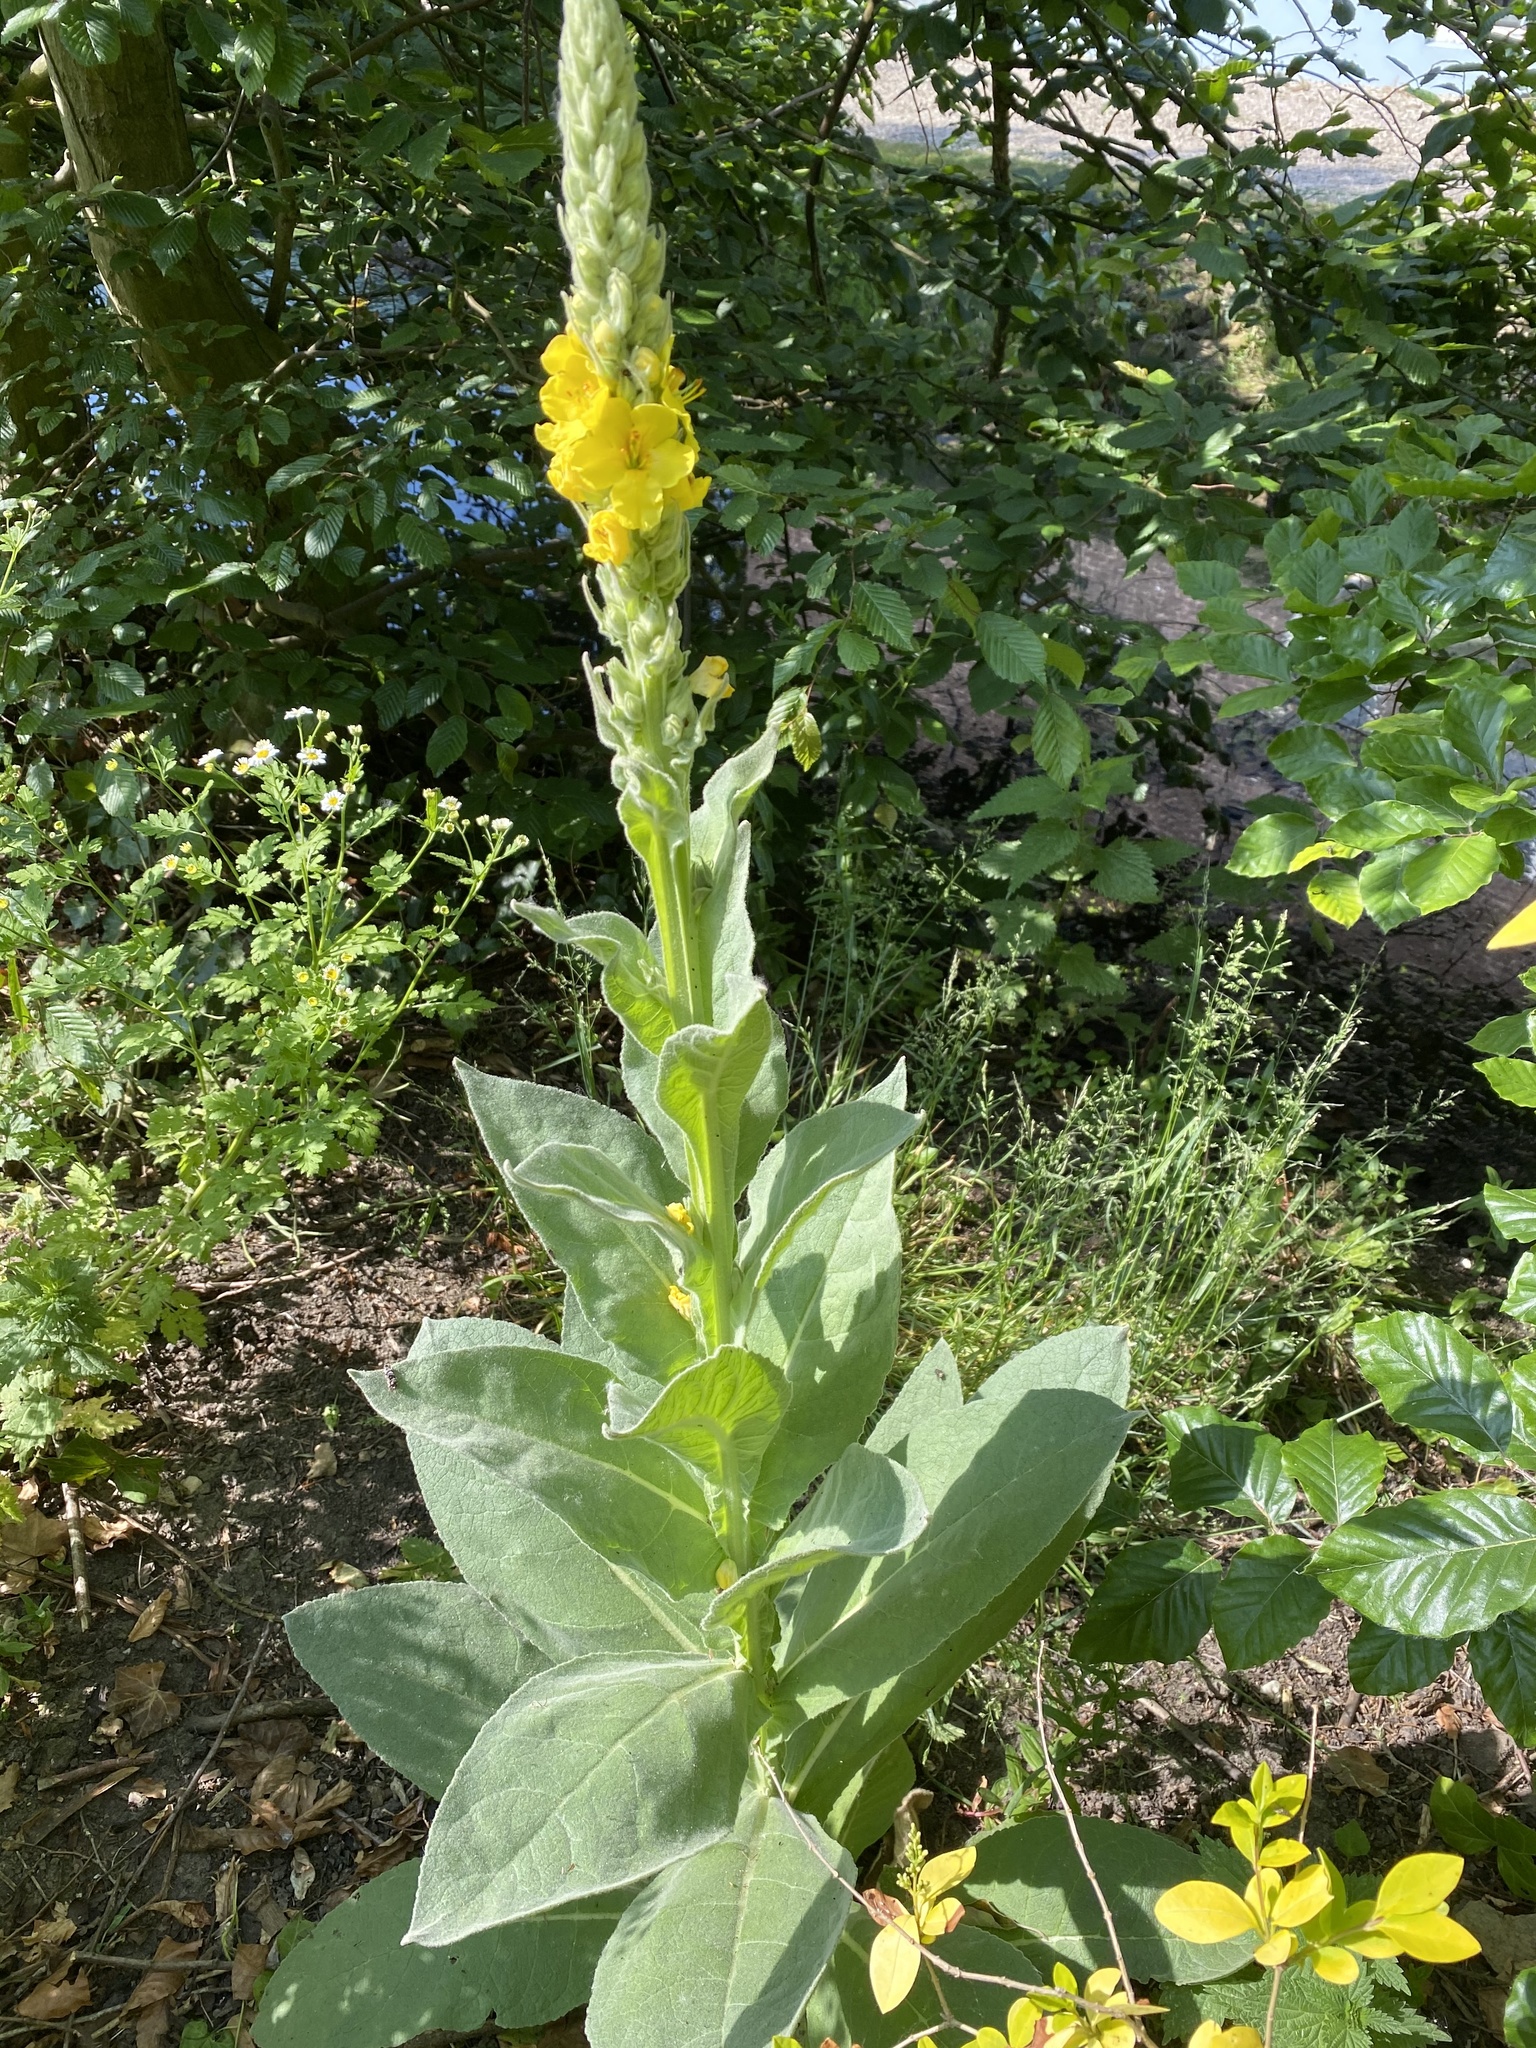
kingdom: Plantae
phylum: Tracheophyta
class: Magnoliopsida
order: Lamiales
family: Scrophulariaceae
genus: Verbascum
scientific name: Verbascum densiflorum
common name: Dense-flowered mullein
